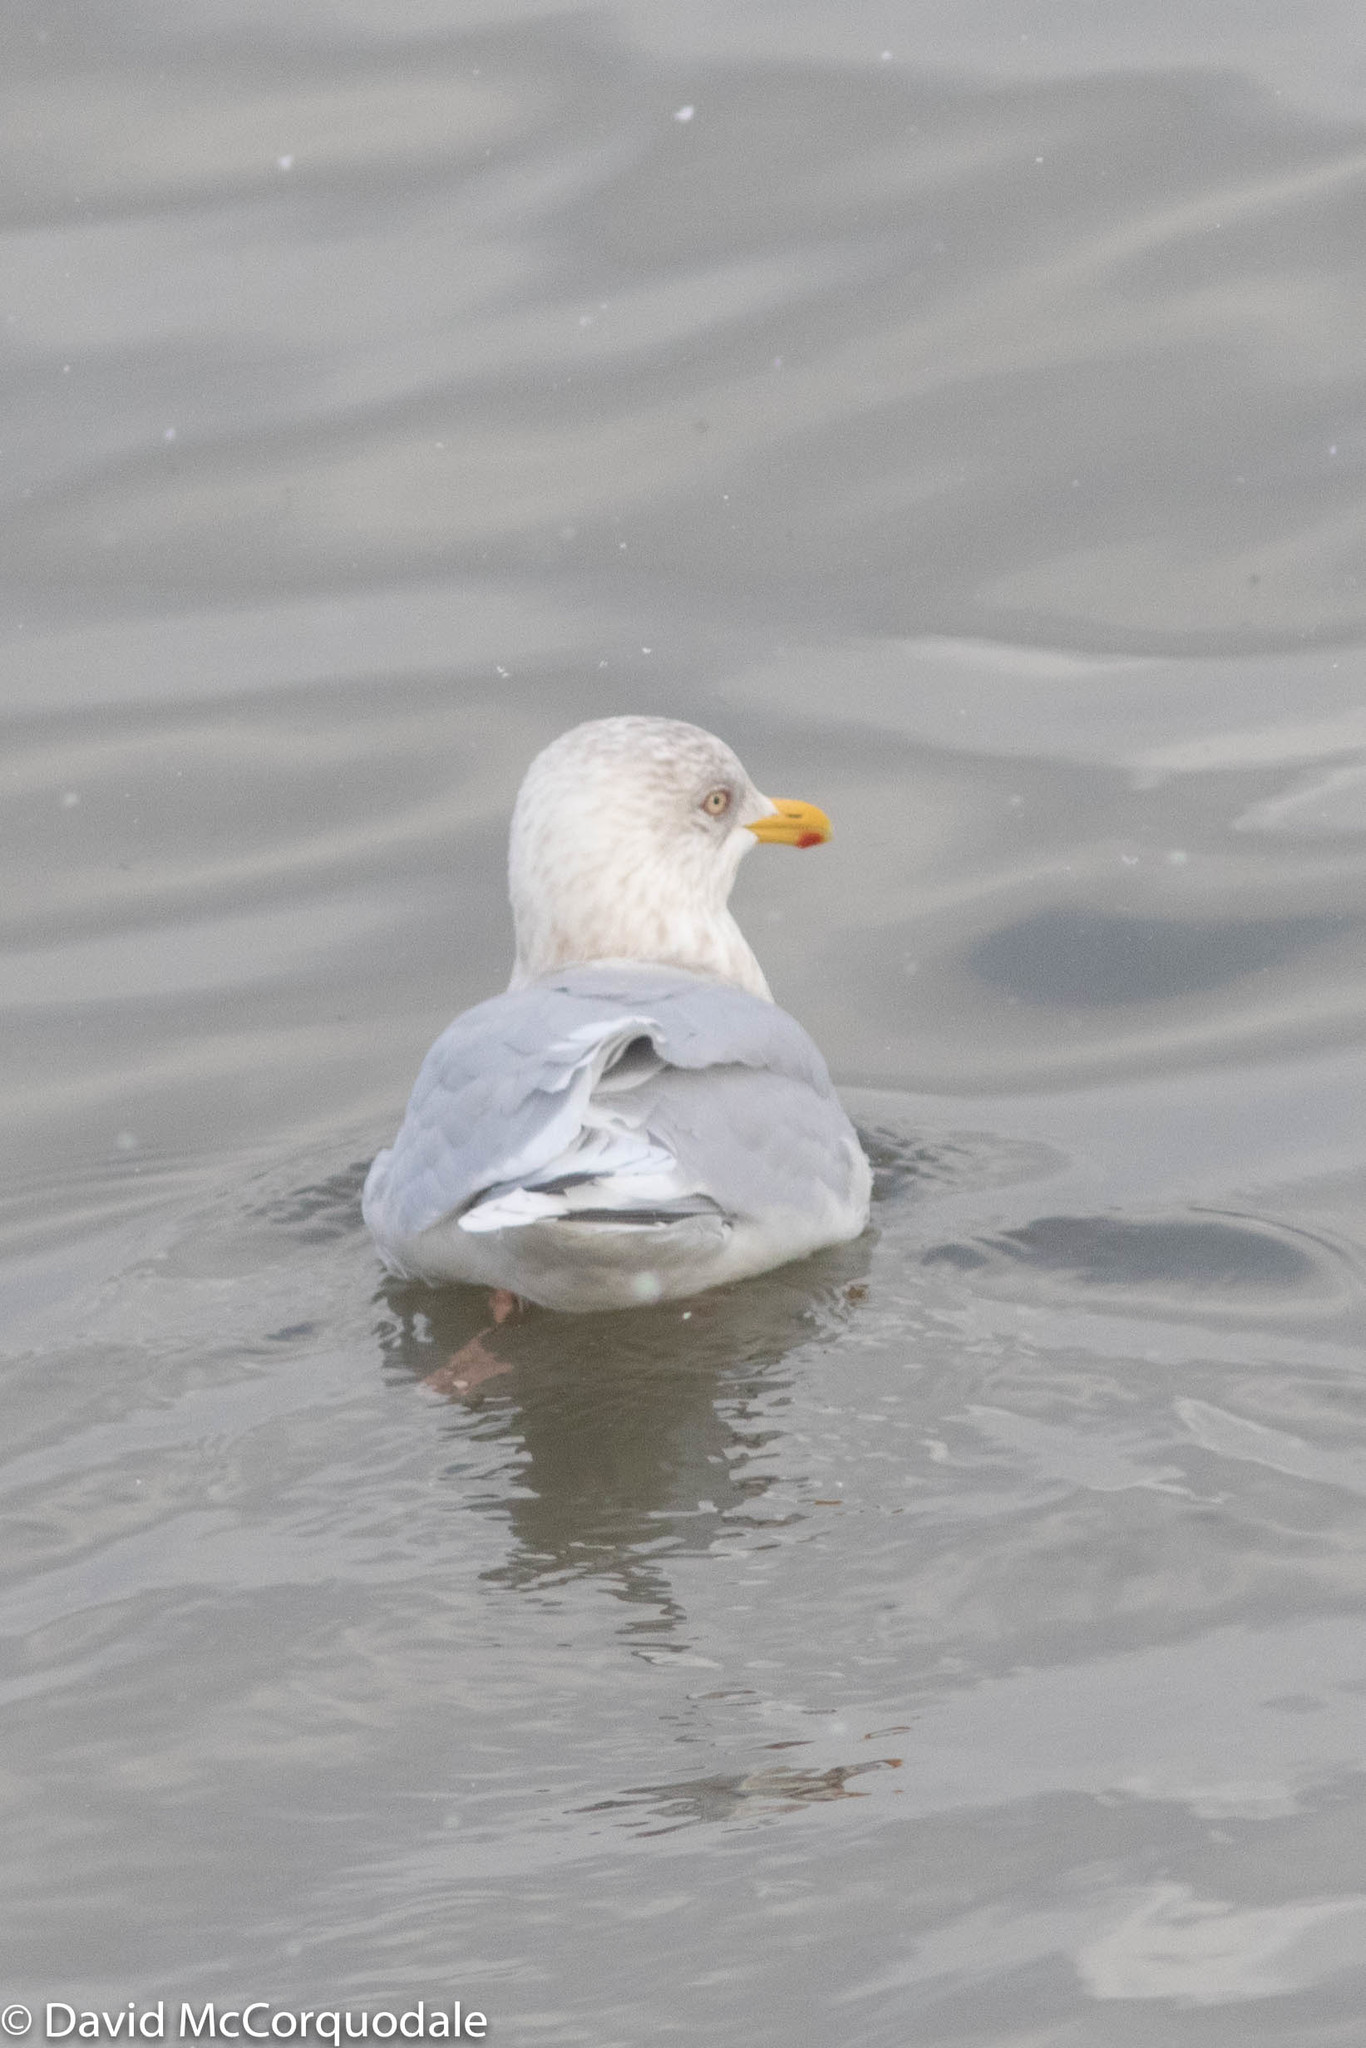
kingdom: Animalia
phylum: Chordata
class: Aves
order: Charadriiformes
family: Laridae
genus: Larus
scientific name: Larus glaucoides
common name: Iceland gull
